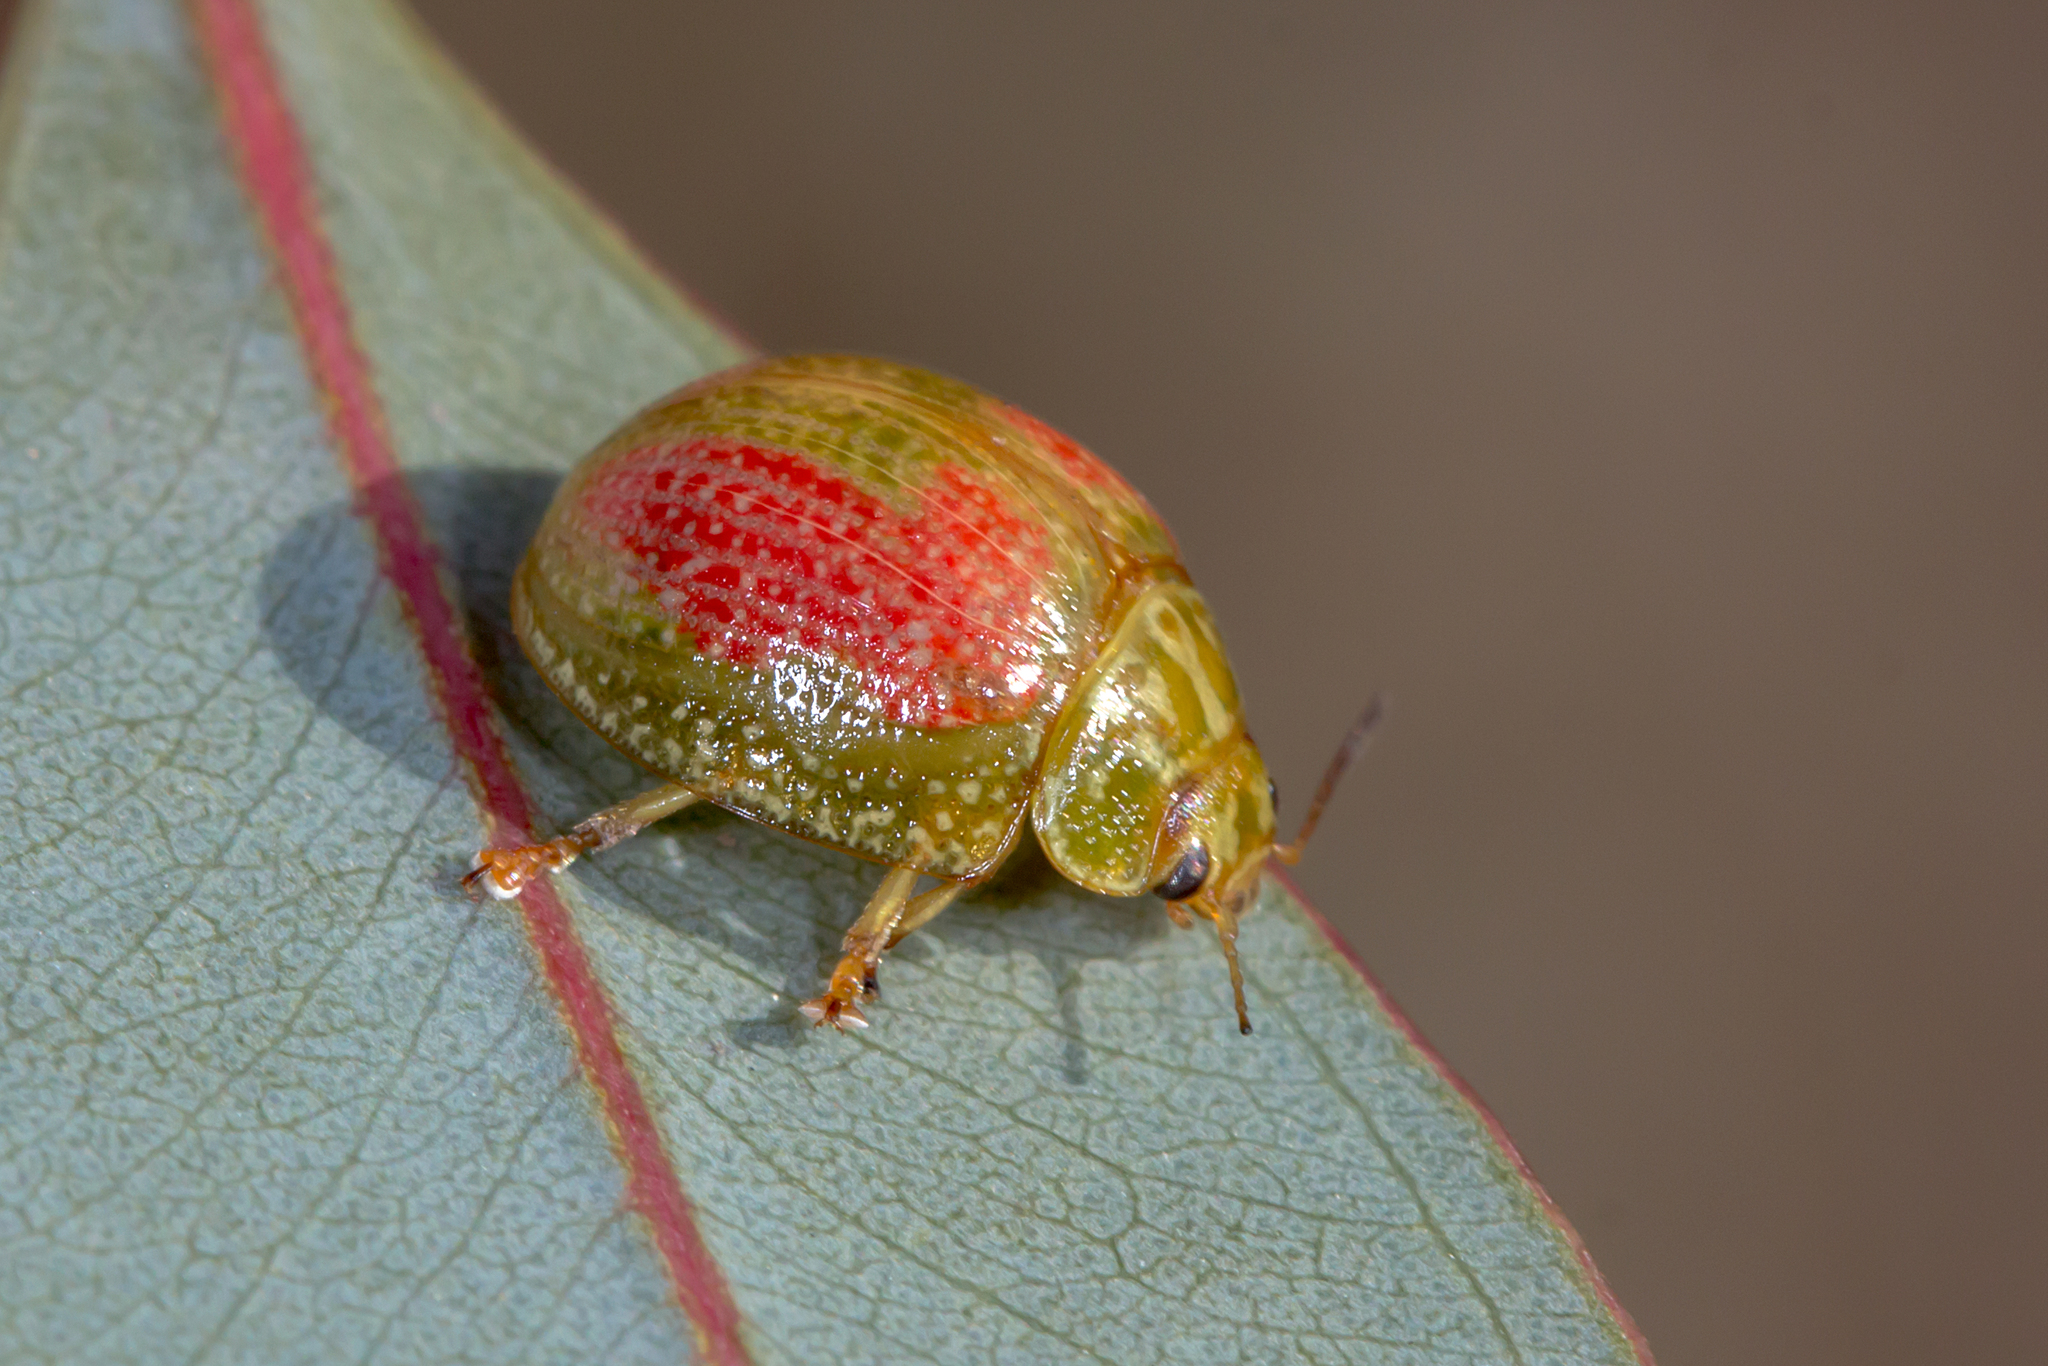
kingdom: Animalia
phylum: Arthropoda
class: Insecta
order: Coleoptera
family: Chrysomelidae
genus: Paropsisterna
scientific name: Paropsisterna
